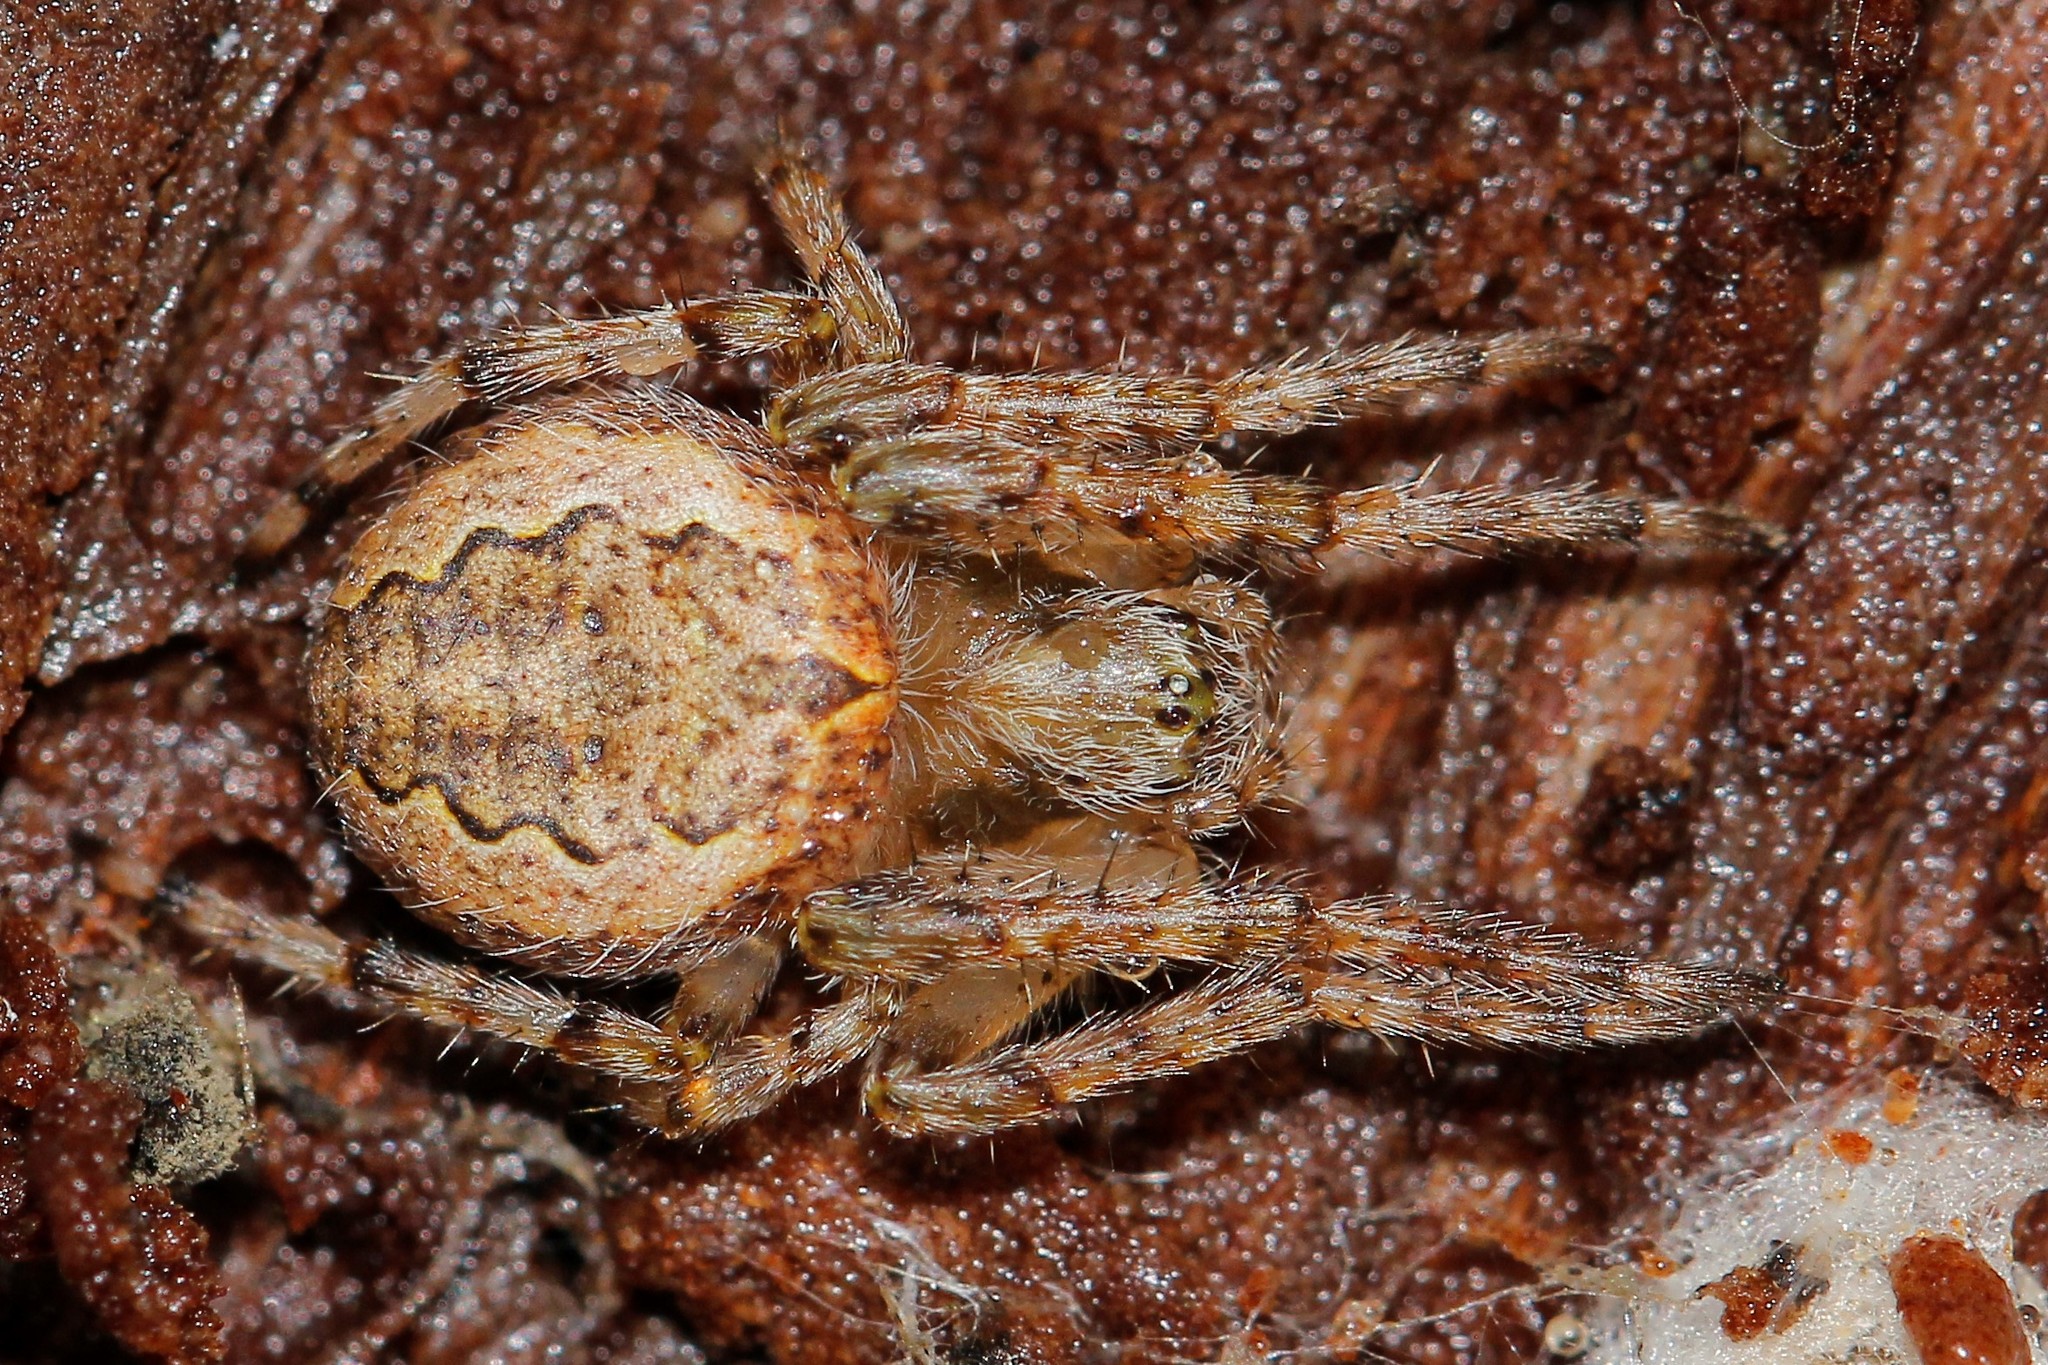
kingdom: Animalia
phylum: Arthropoda
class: Arachnida
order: Araneae
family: Araneidae
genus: Larinioides
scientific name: Larinioides ixobolus
